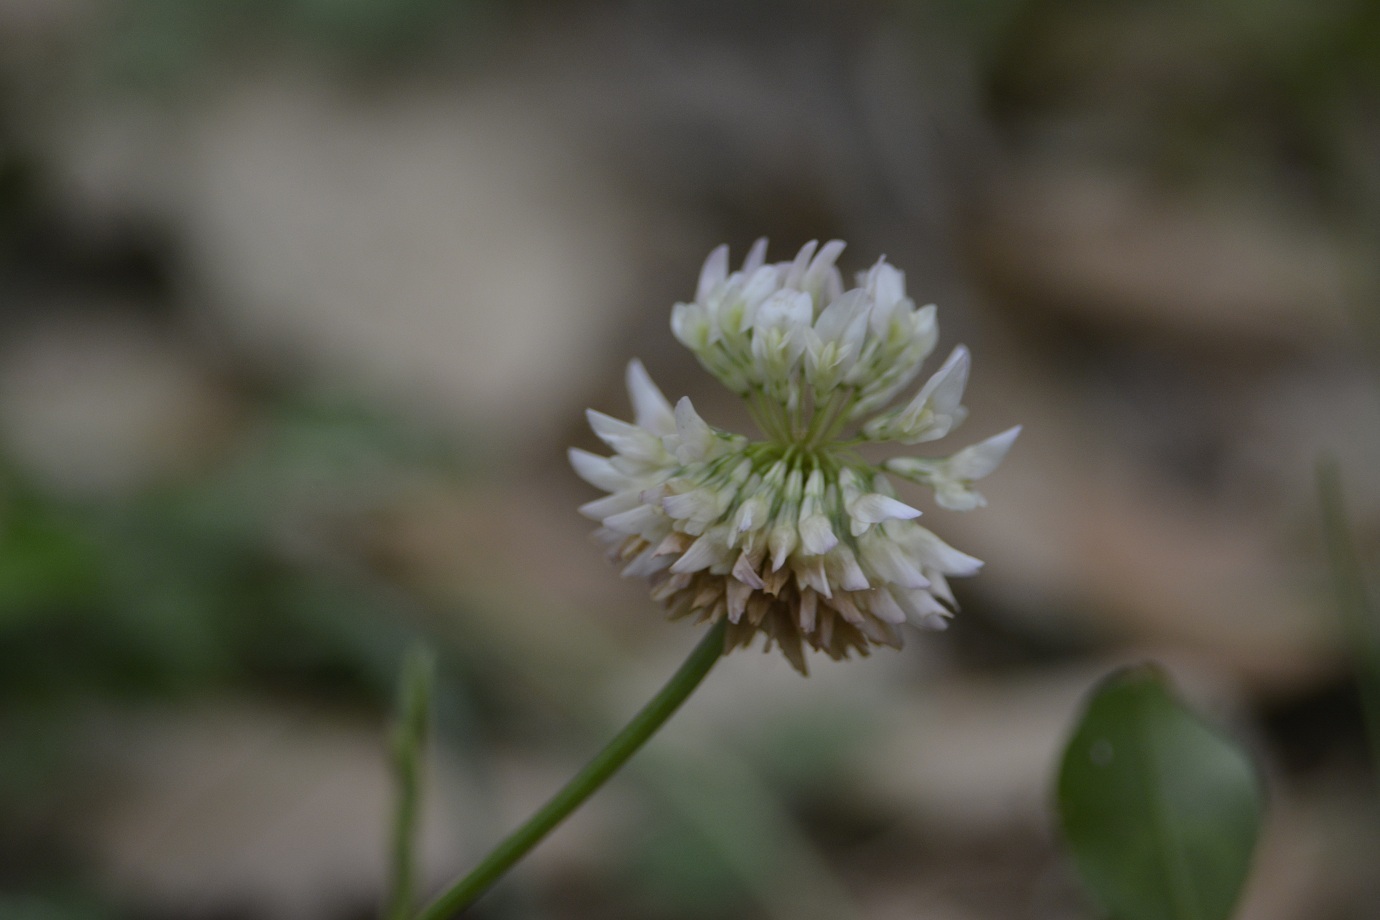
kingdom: Plantae
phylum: Tracheophyta
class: Magnoliopsida
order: Fabales
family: Fabaceae
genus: Trifolium
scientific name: Trifolium repens
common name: White clover
